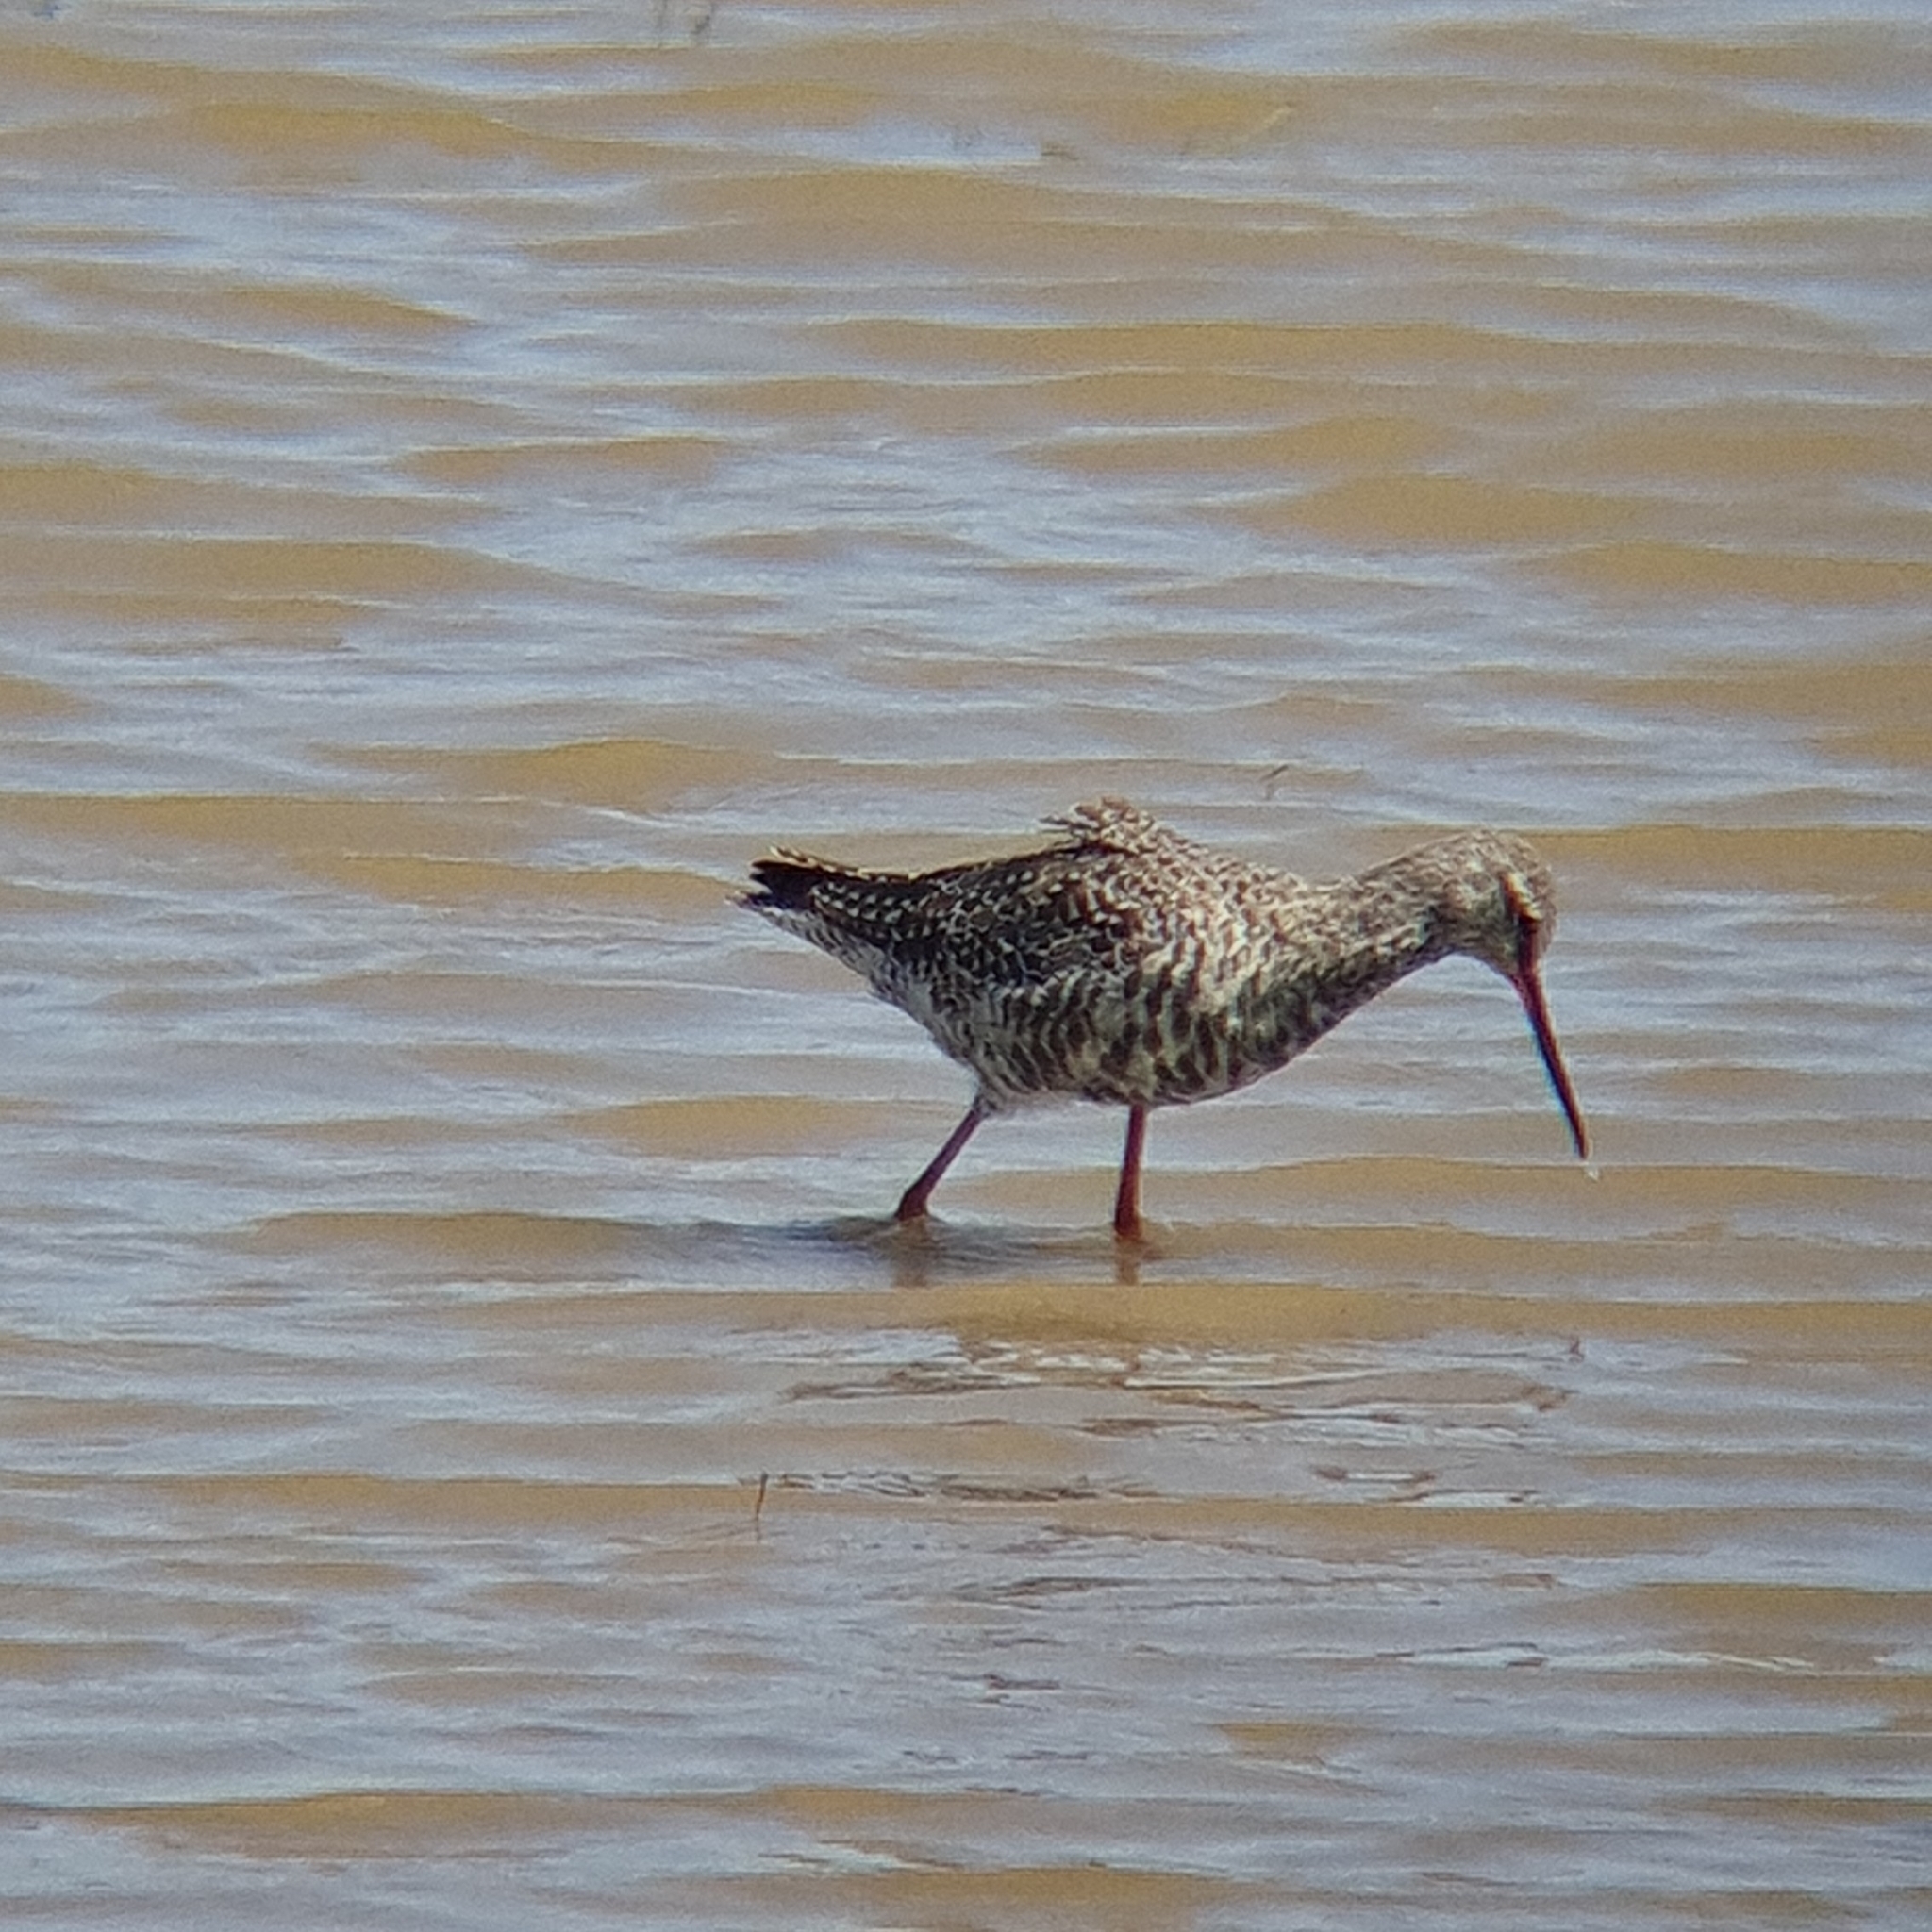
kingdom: Animalia
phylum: Chordata
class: Aves
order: Charadriiformes
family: Scolopacidae
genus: Tringa
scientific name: Tringa erythropus
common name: Spotted redshank
